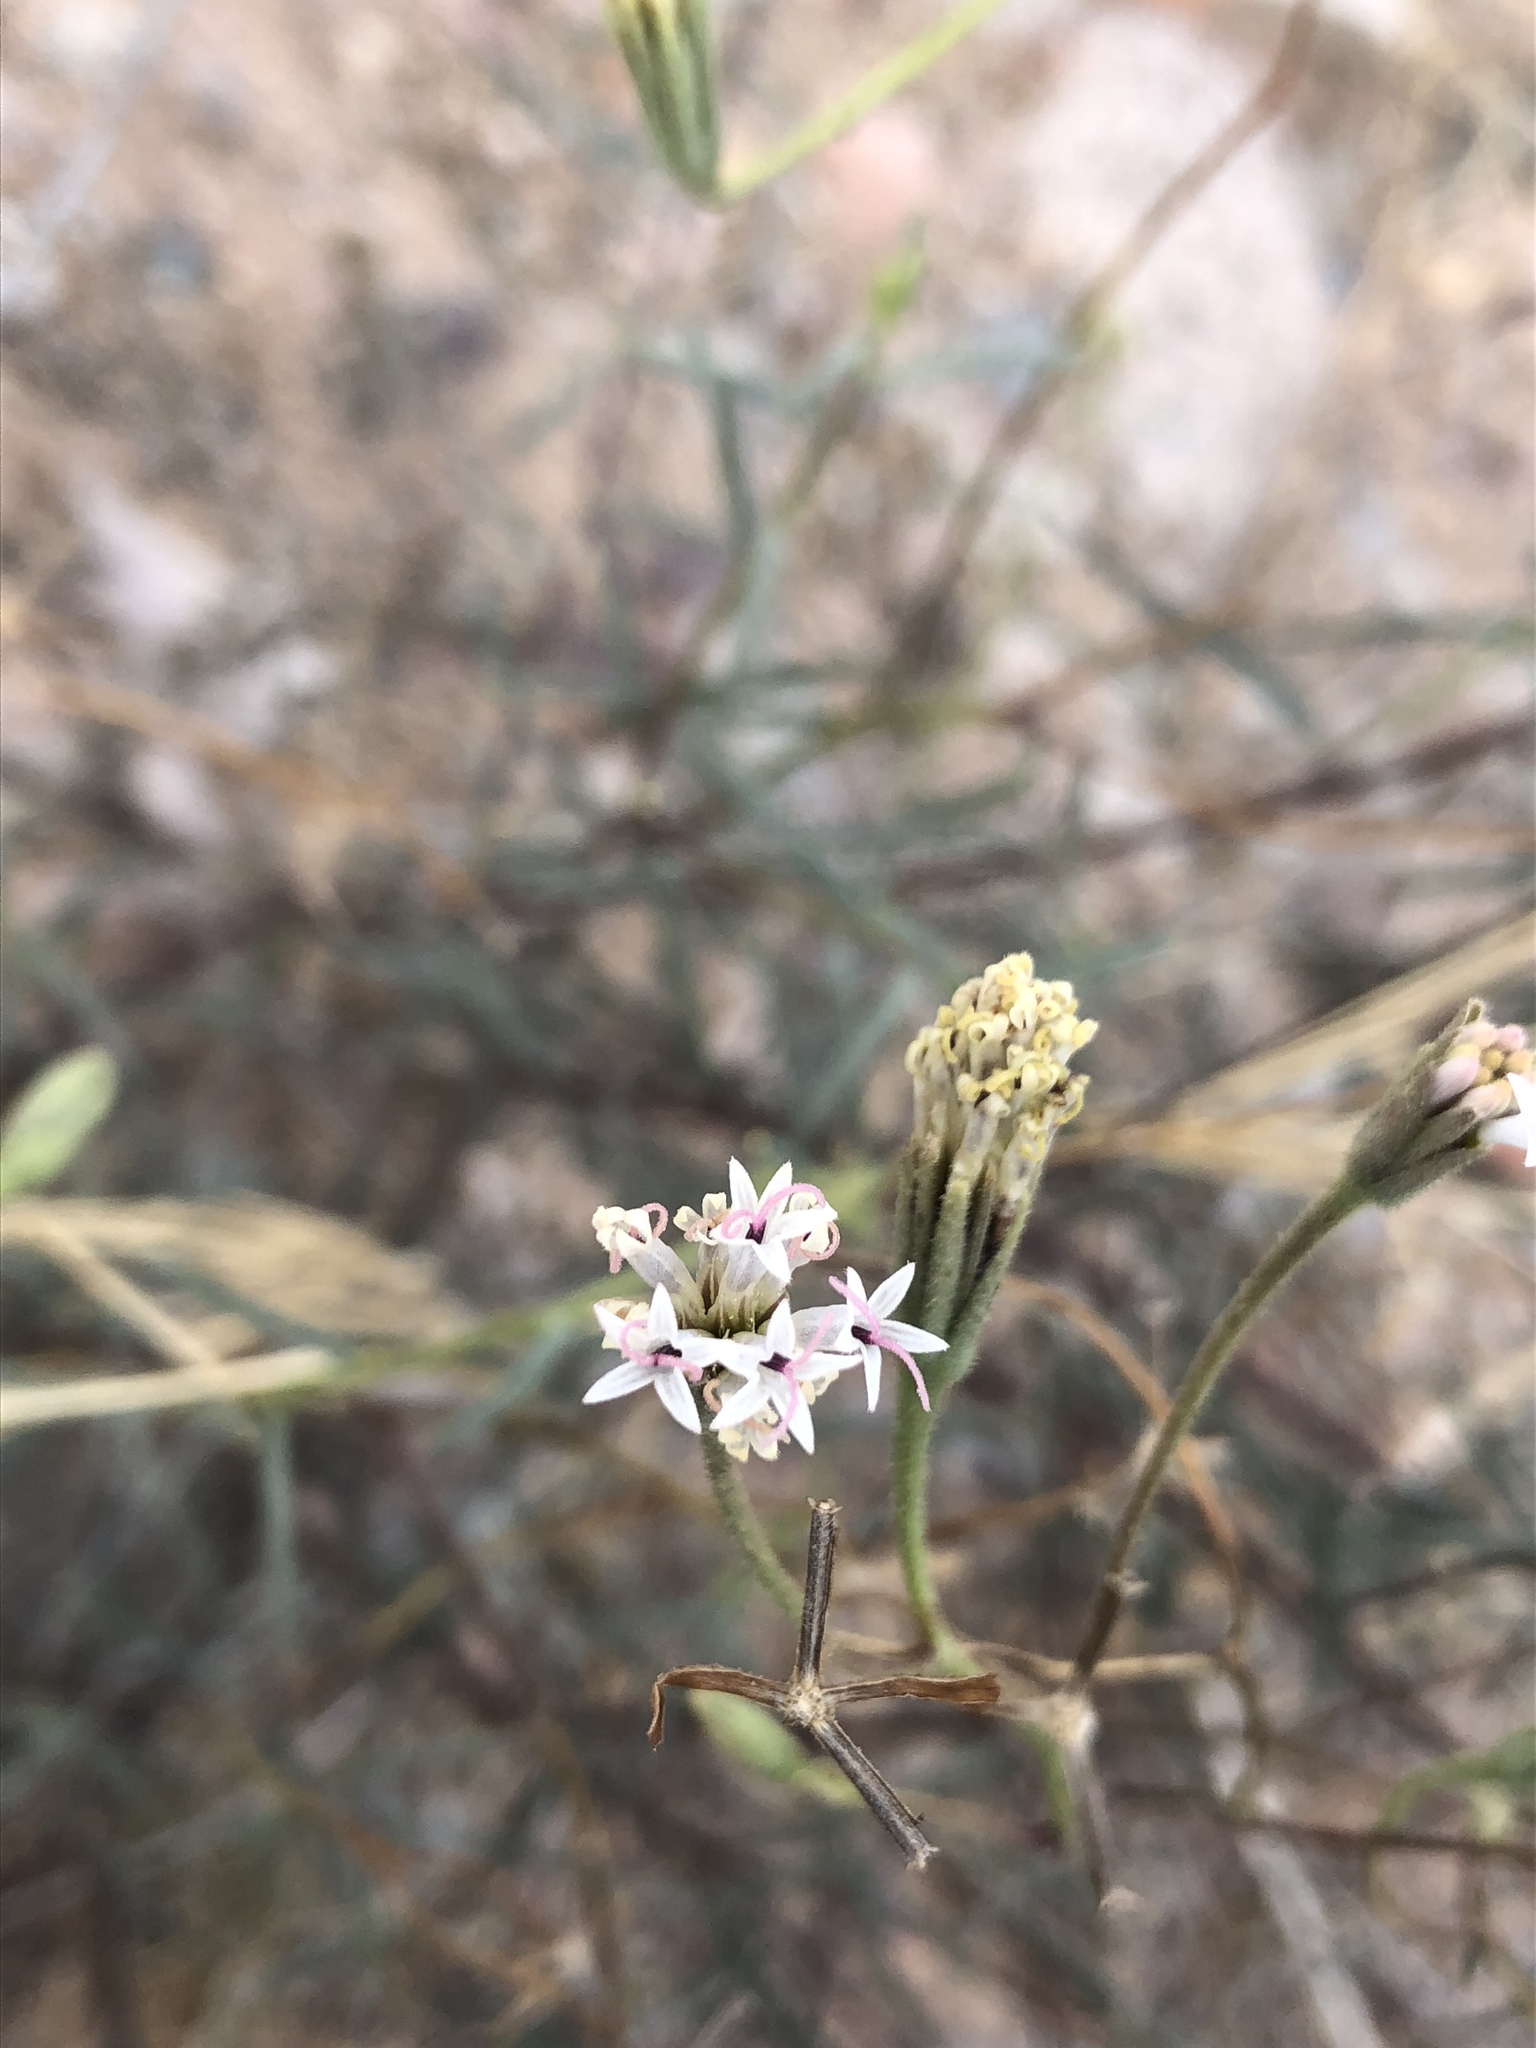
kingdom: Plantae
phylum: Tracheophyta
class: Magnoliopsida
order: Asterales
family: Asteraceae
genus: Palafoxia
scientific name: Palafoxia arida
